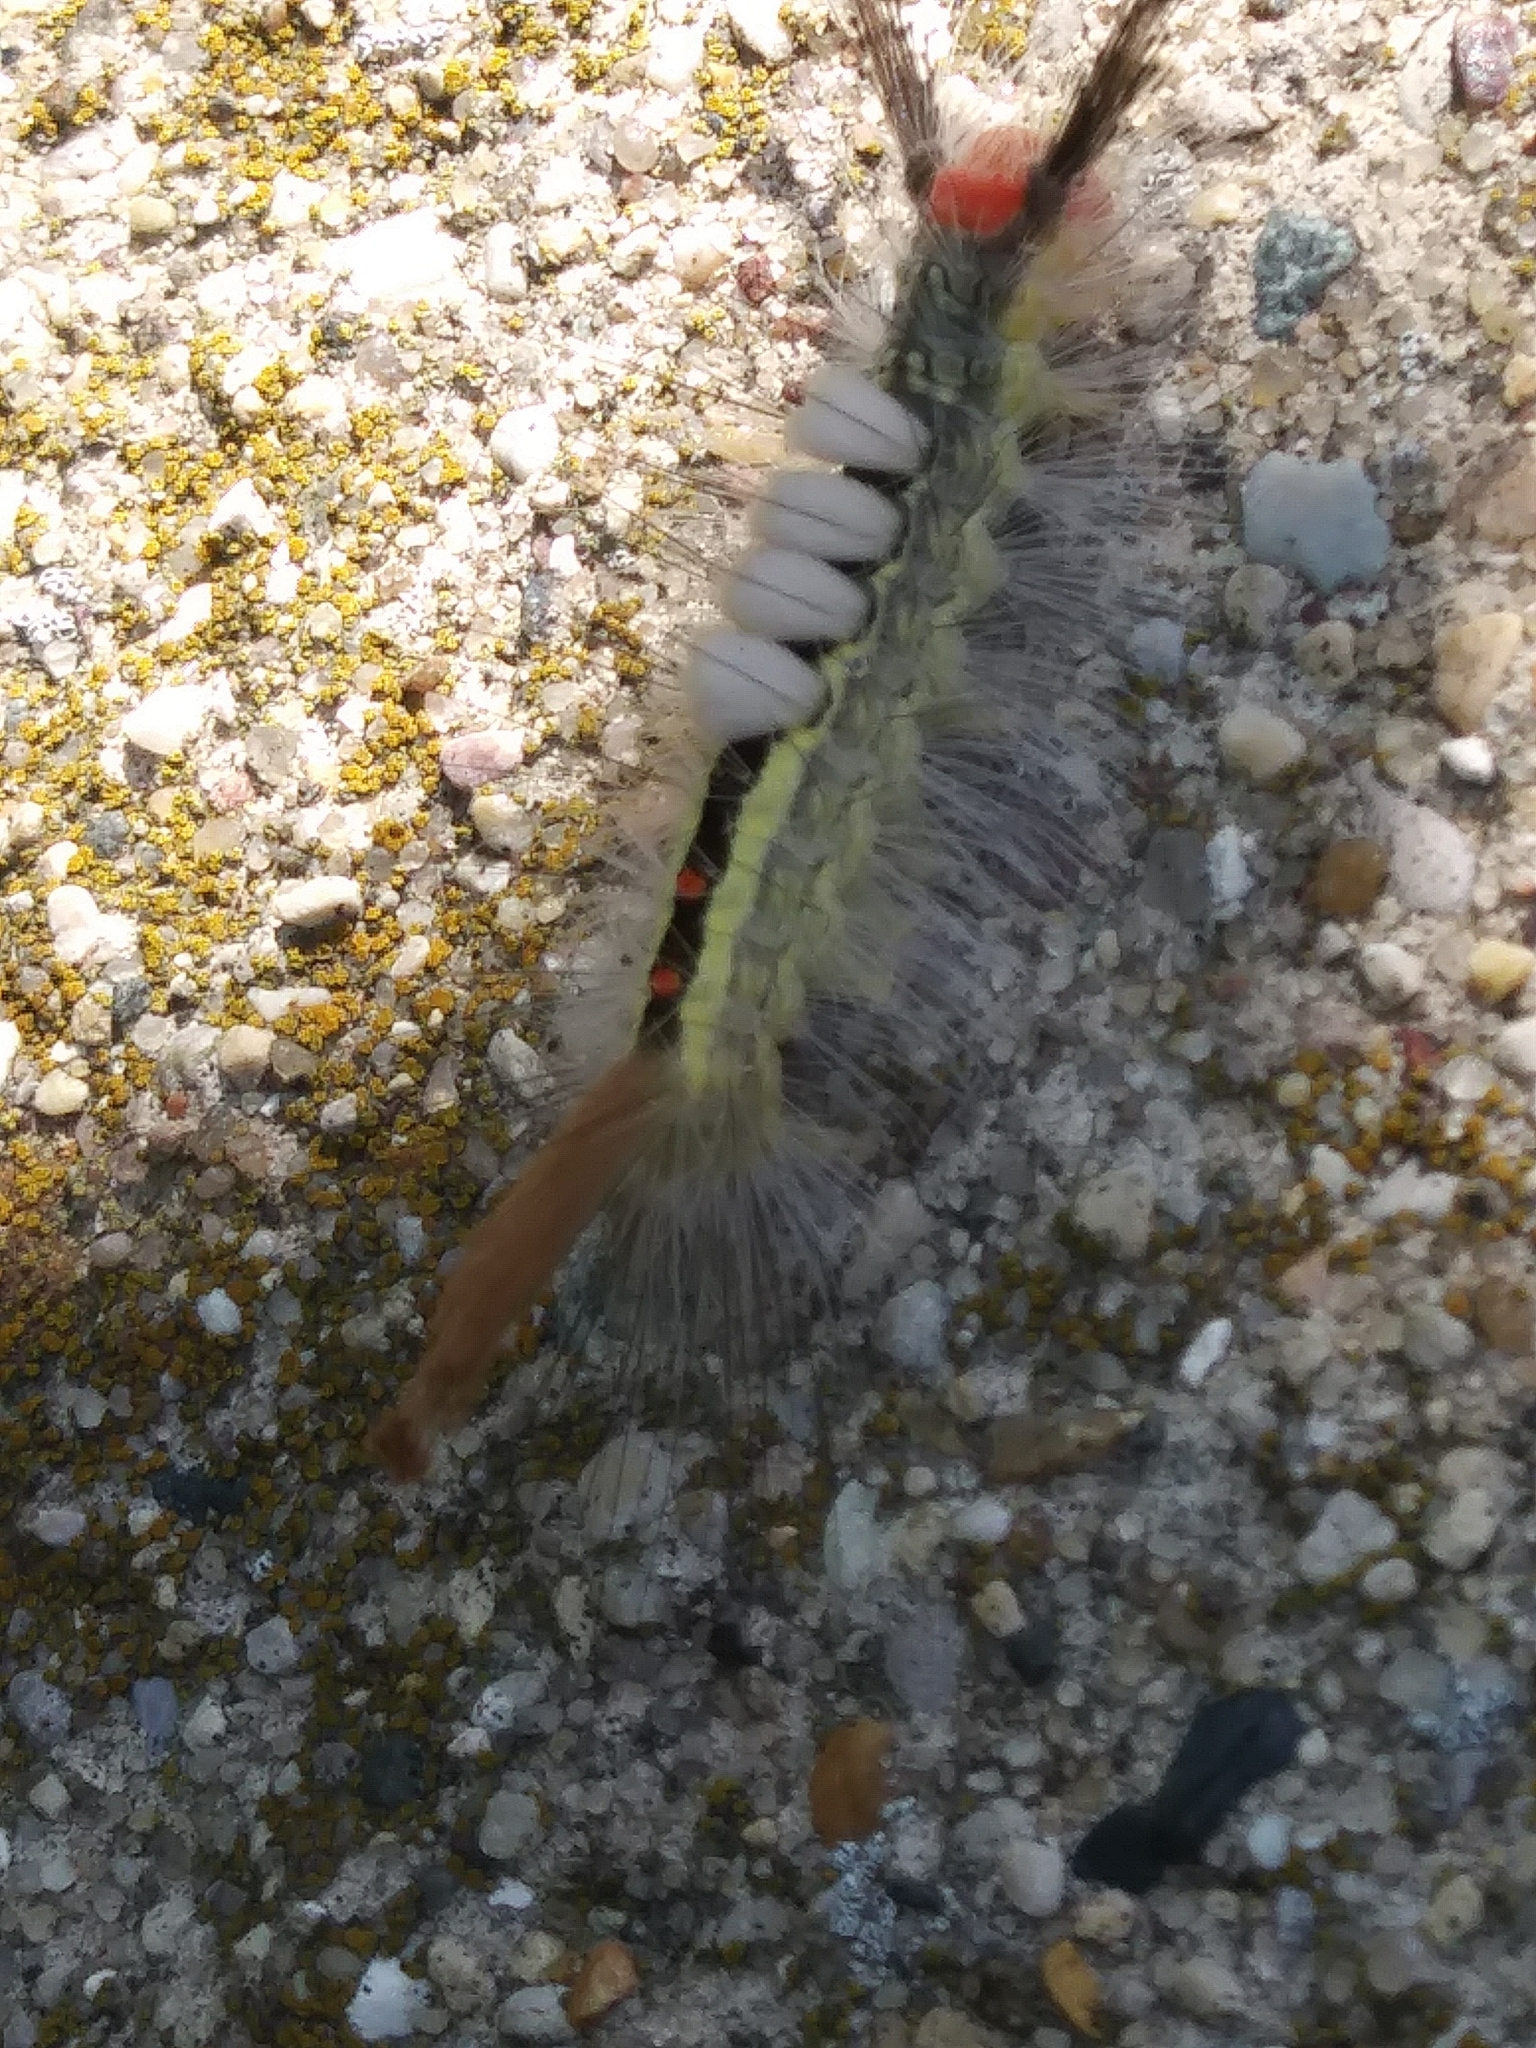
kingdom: Animalia
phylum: Arthropoda
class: Insecta
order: Lepidoptera
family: Erebidae
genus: Orgyia
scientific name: Orgyia leucostigma
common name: White-marked tussock moth
